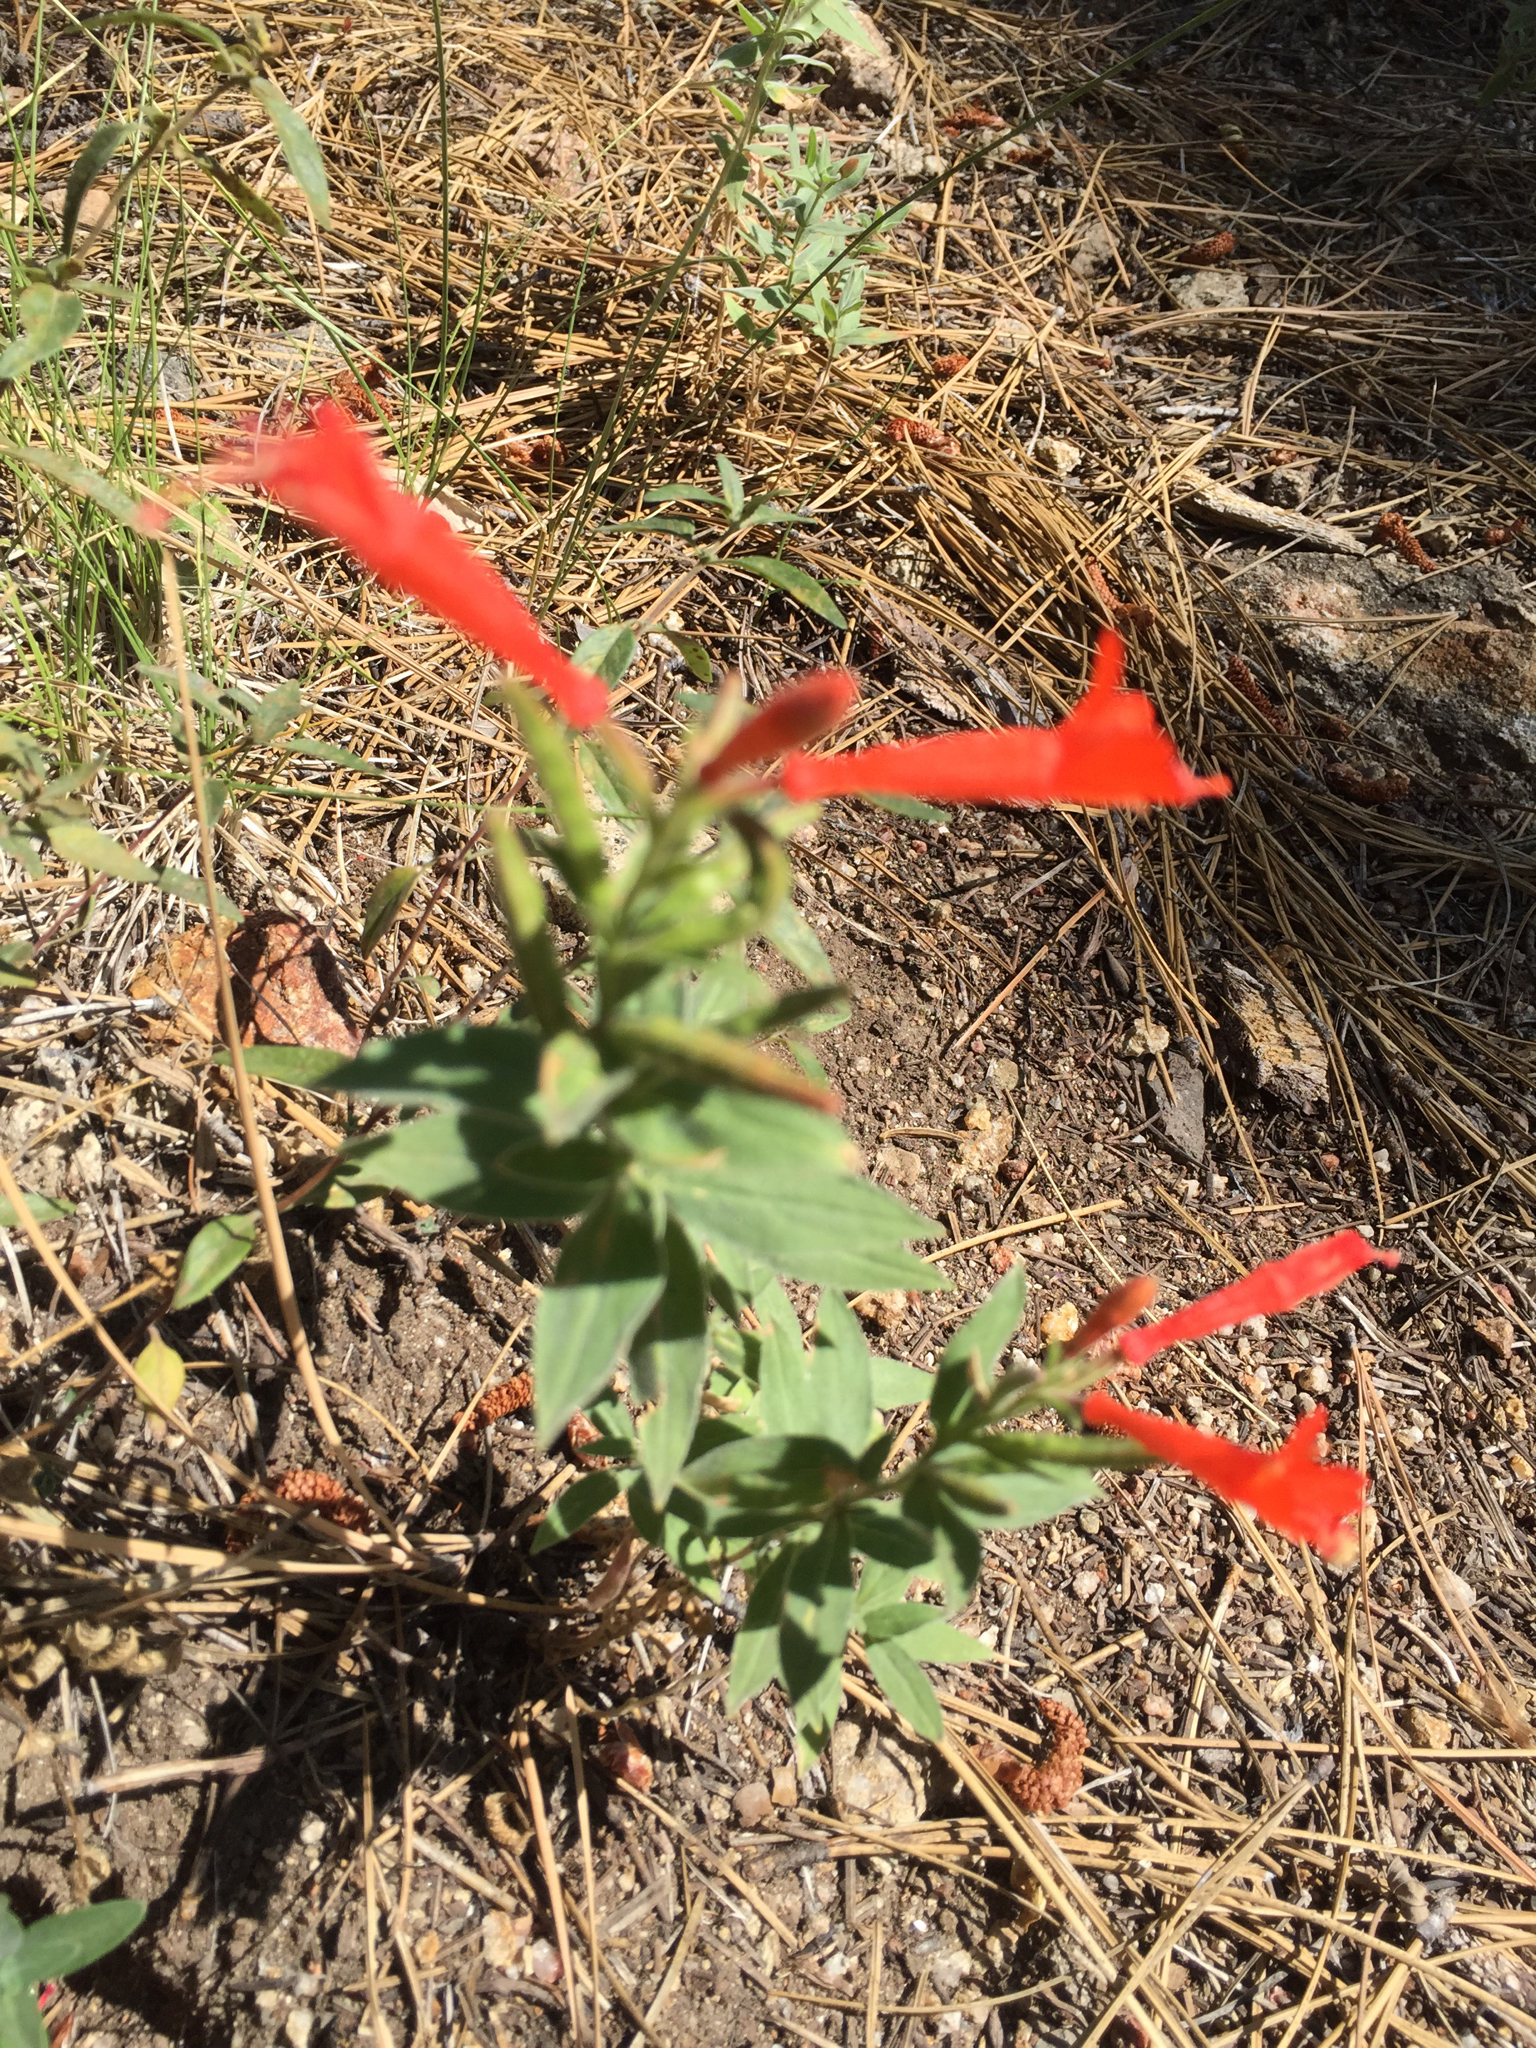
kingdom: Plantae
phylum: Tracheophyta
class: Magnoliopsida
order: Myrtales
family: Onagraceae
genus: Epilobium
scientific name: Epilobium canum
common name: California-fuchsia
